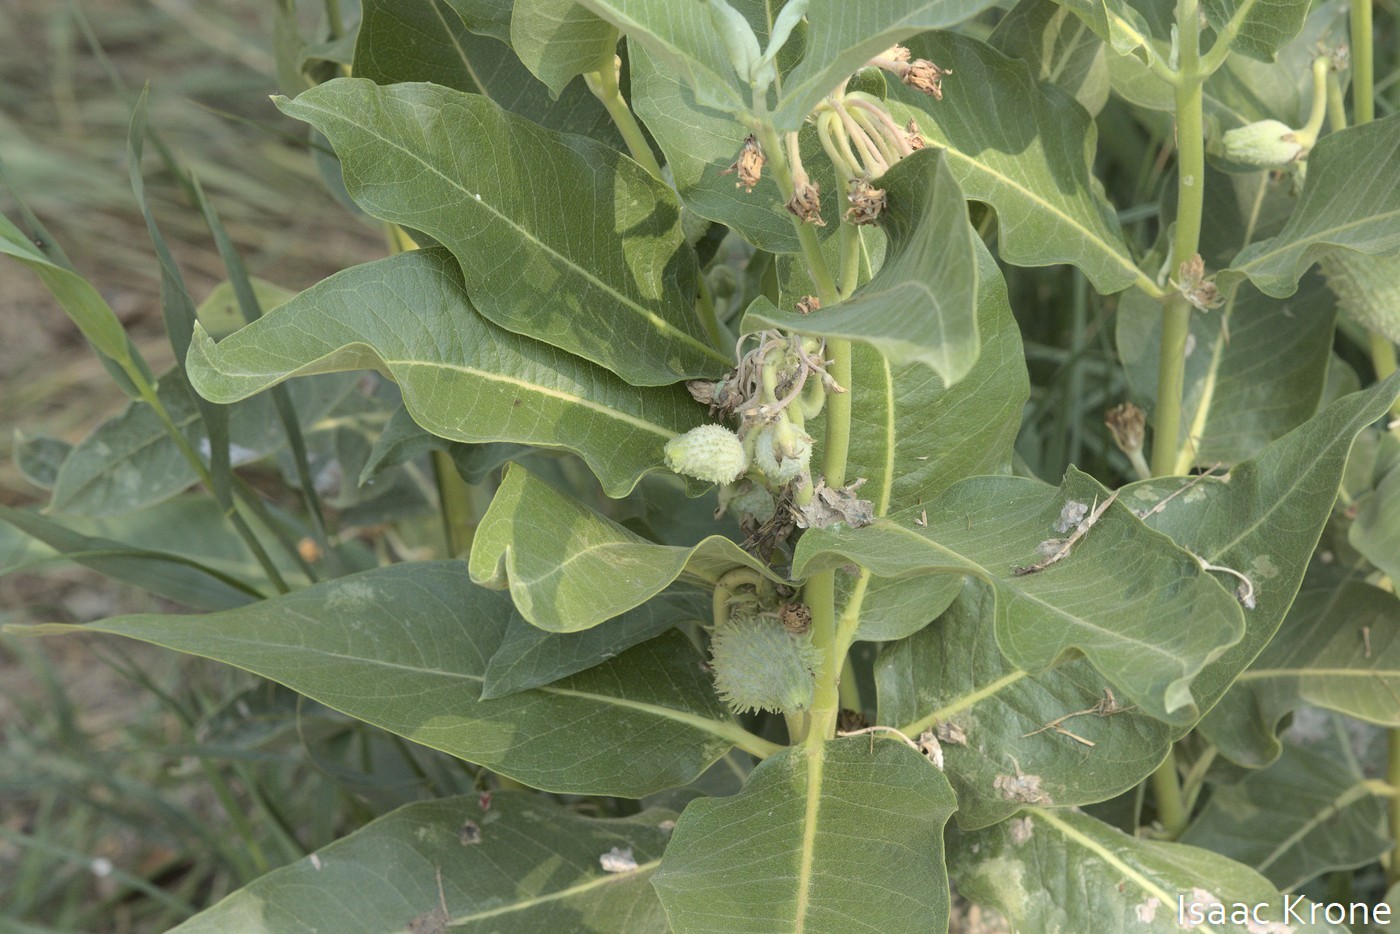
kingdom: Plantae
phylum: Tracheophyta
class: Magnoliopsida
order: Gentianales
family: Apocynaceae
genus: Asclepias
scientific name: Asclepias speciosa
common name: Showy milkweed
